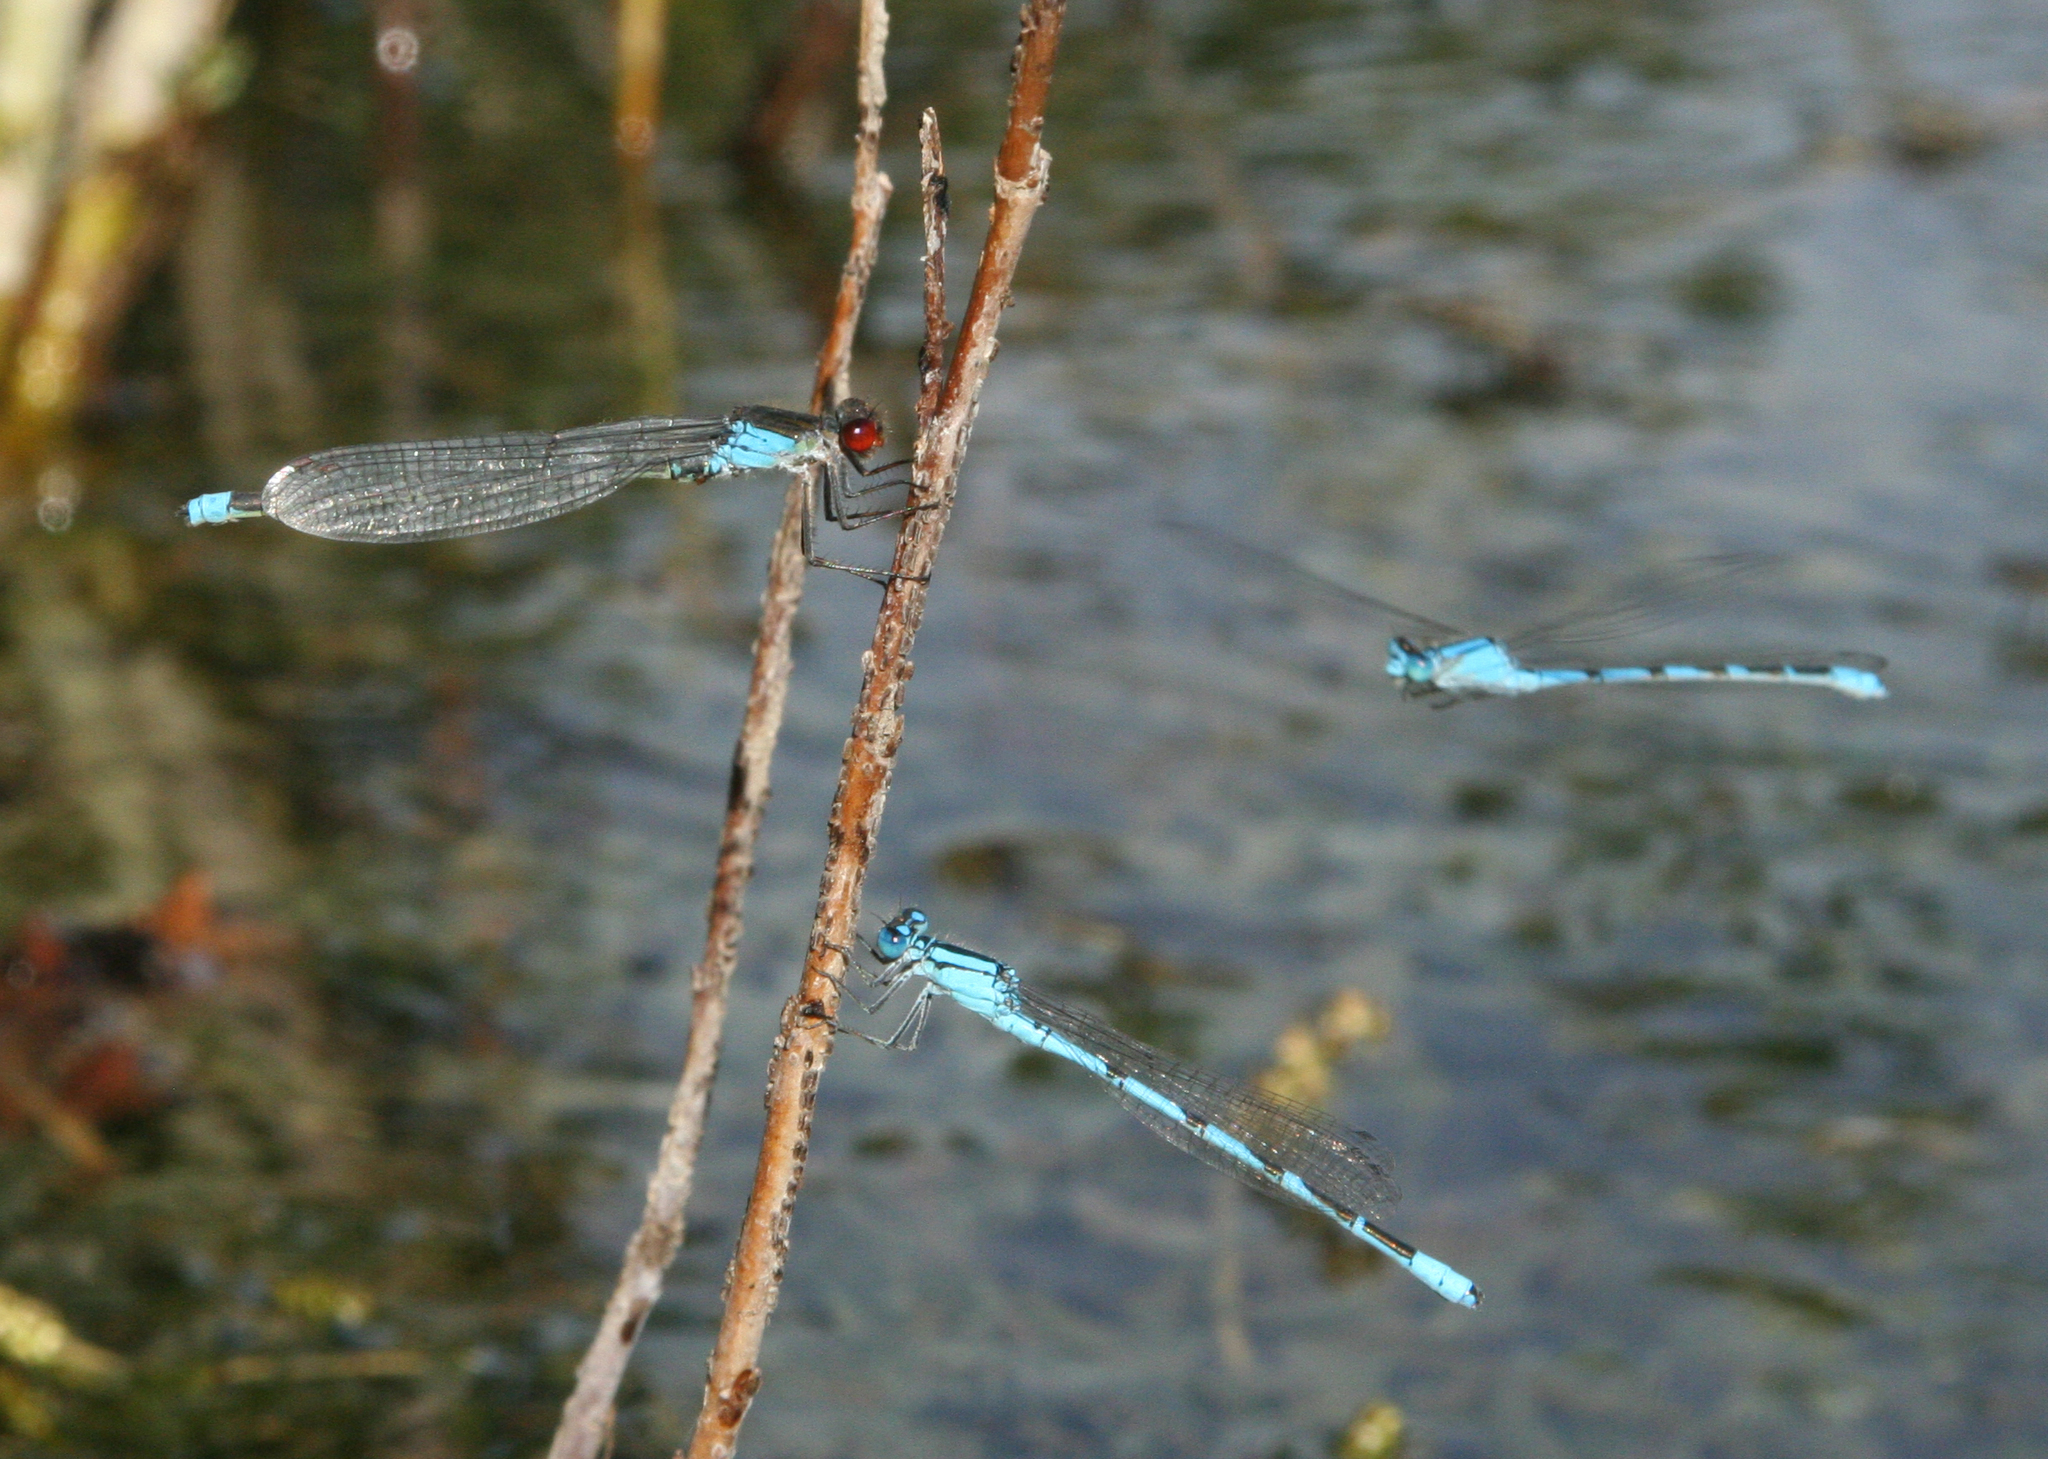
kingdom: Animalia
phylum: Arthropoda
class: Insecta
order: Odonata
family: Coenagrionidae
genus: Erythromma
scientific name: Erythromma najas
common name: Red-eyed damselfly
